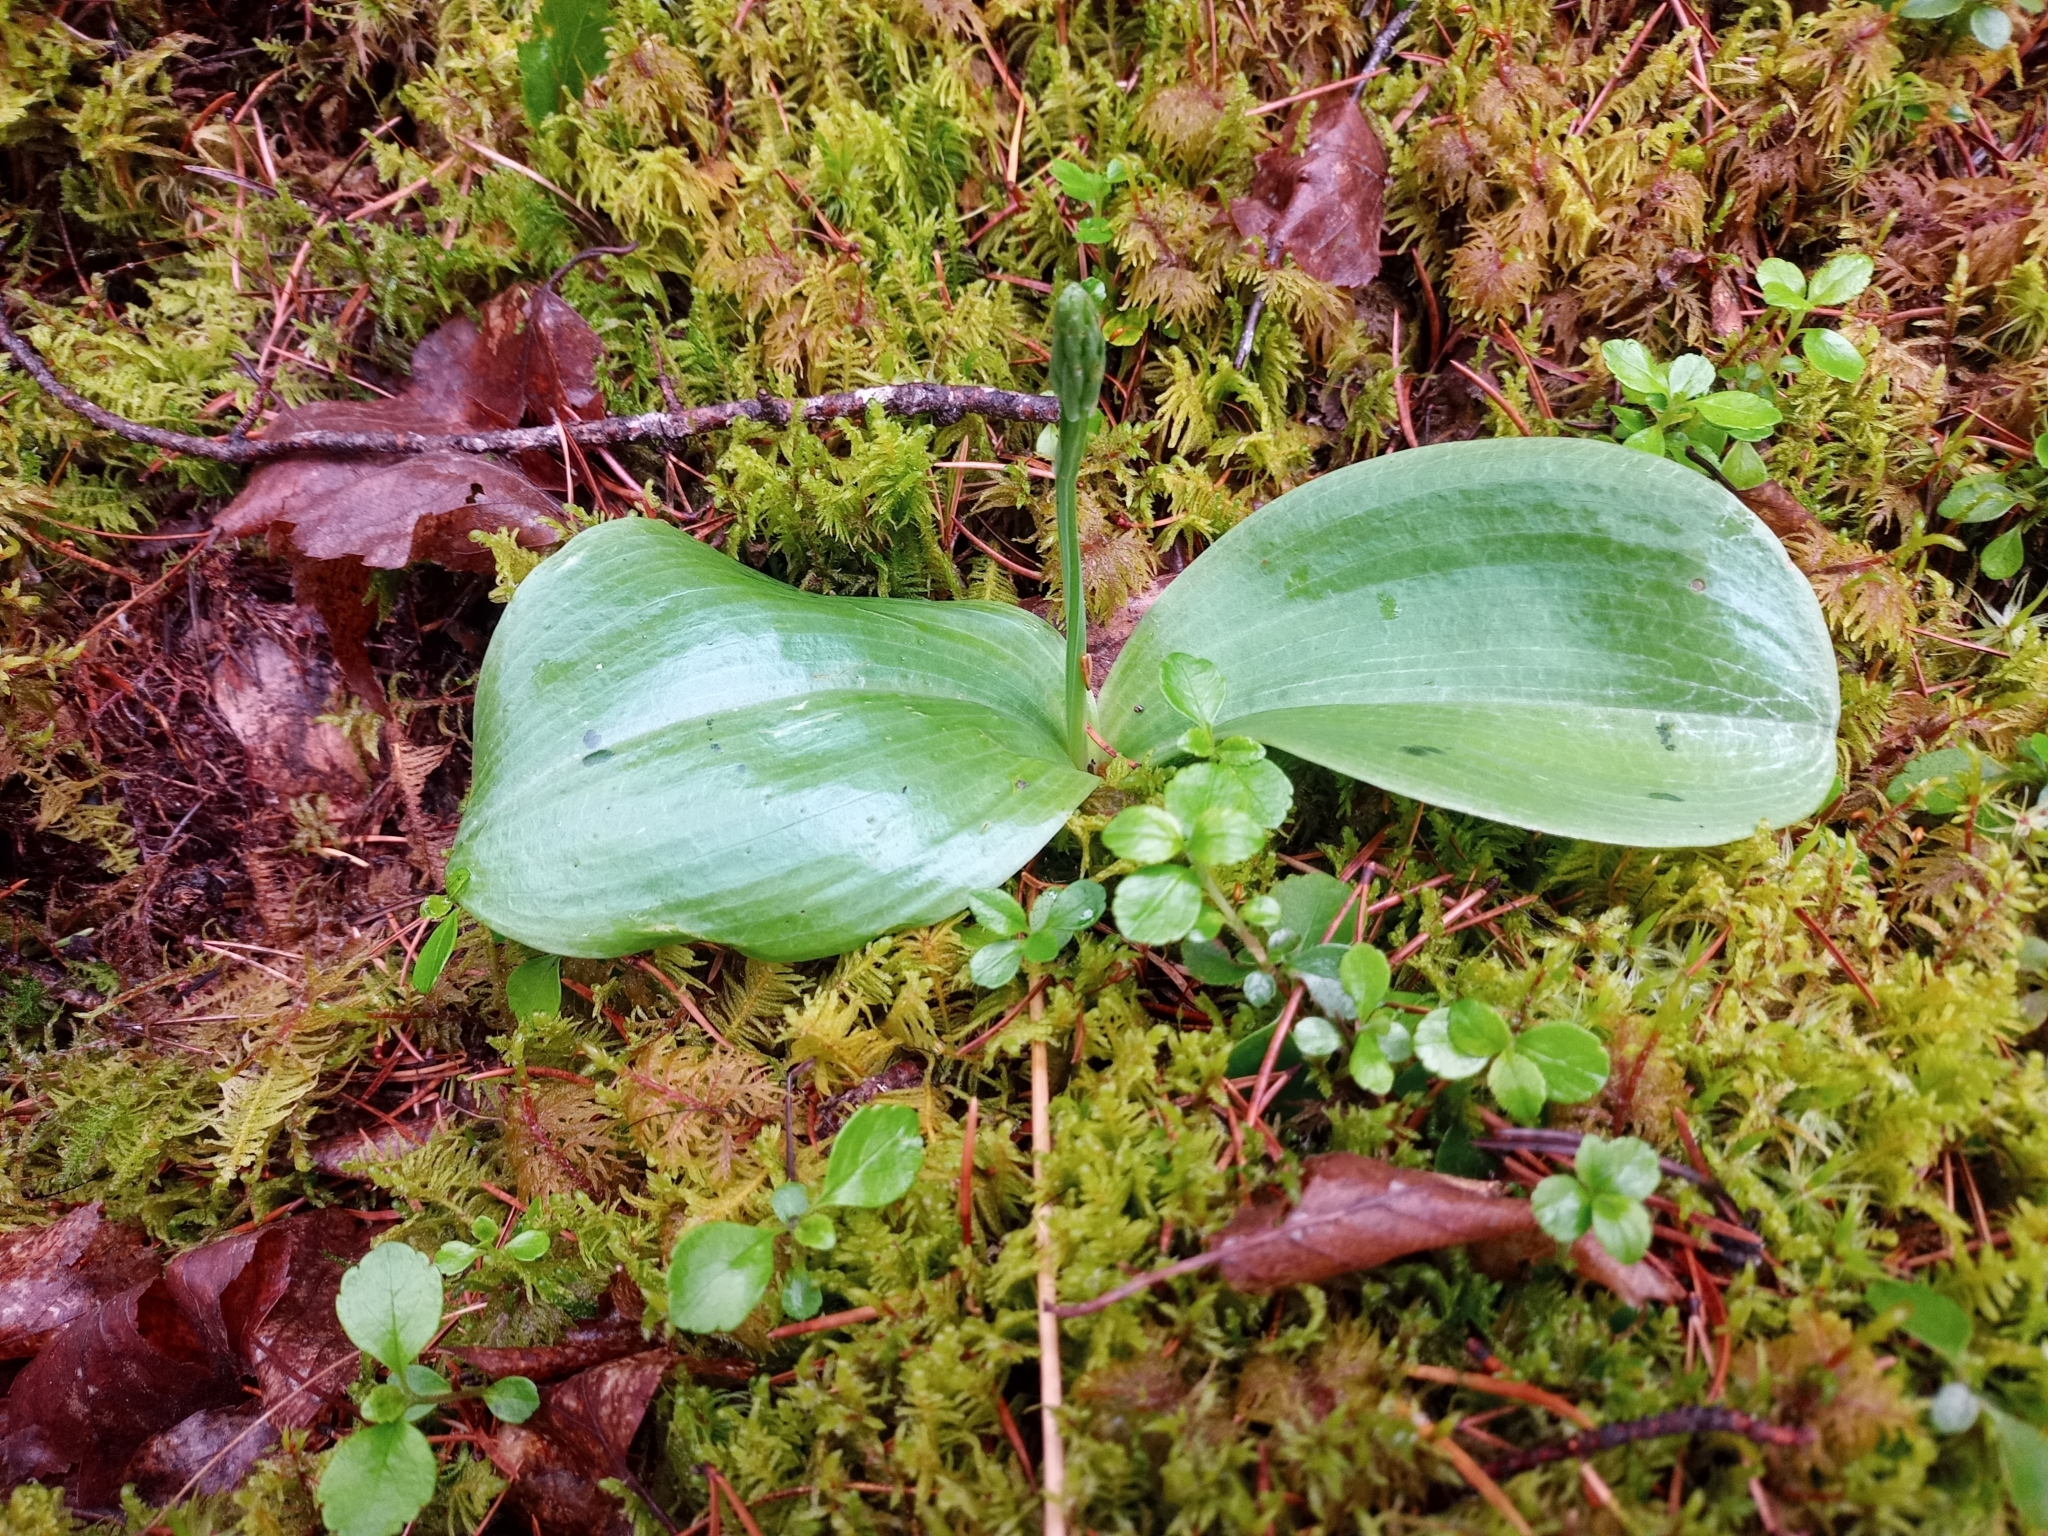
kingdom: Plantae
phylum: Tracheophyta
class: Liliopsida
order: Asparagales
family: Orchidaceae
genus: Platanthera
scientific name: Platanthera orbiculata
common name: Large round-leaved orchid
